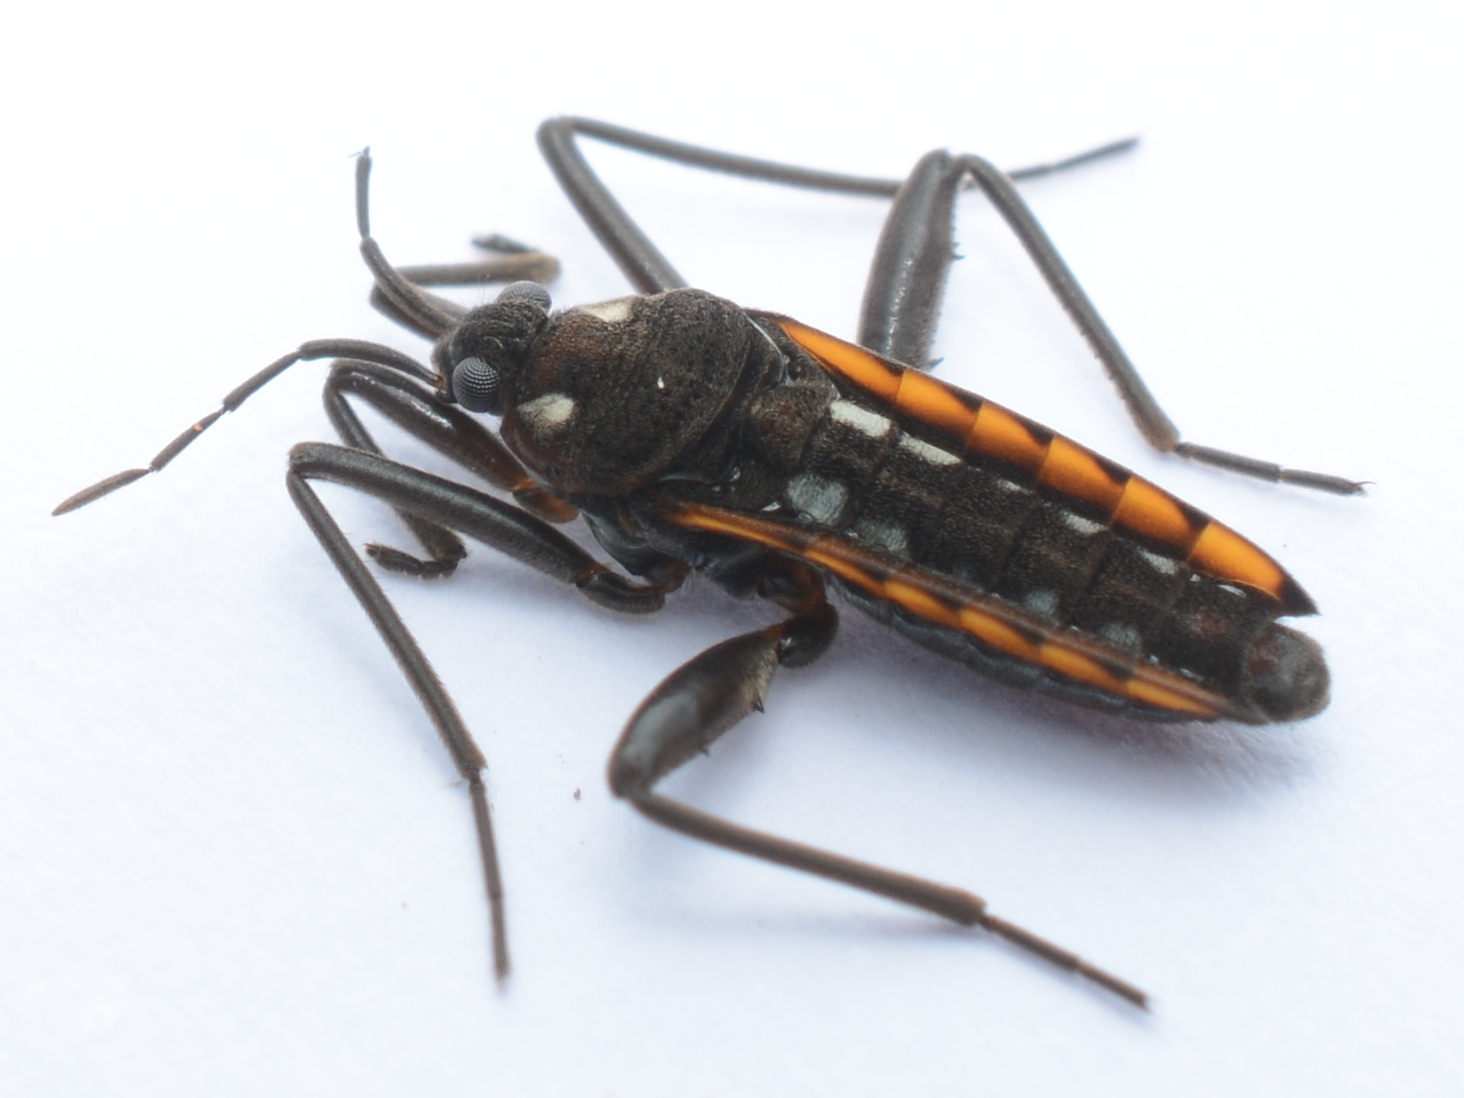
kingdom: Animalia
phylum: Arthropoda
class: Insecta
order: Hemiptera
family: Veliidae
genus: Velia
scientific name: Velia caprai
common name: Water cricket
